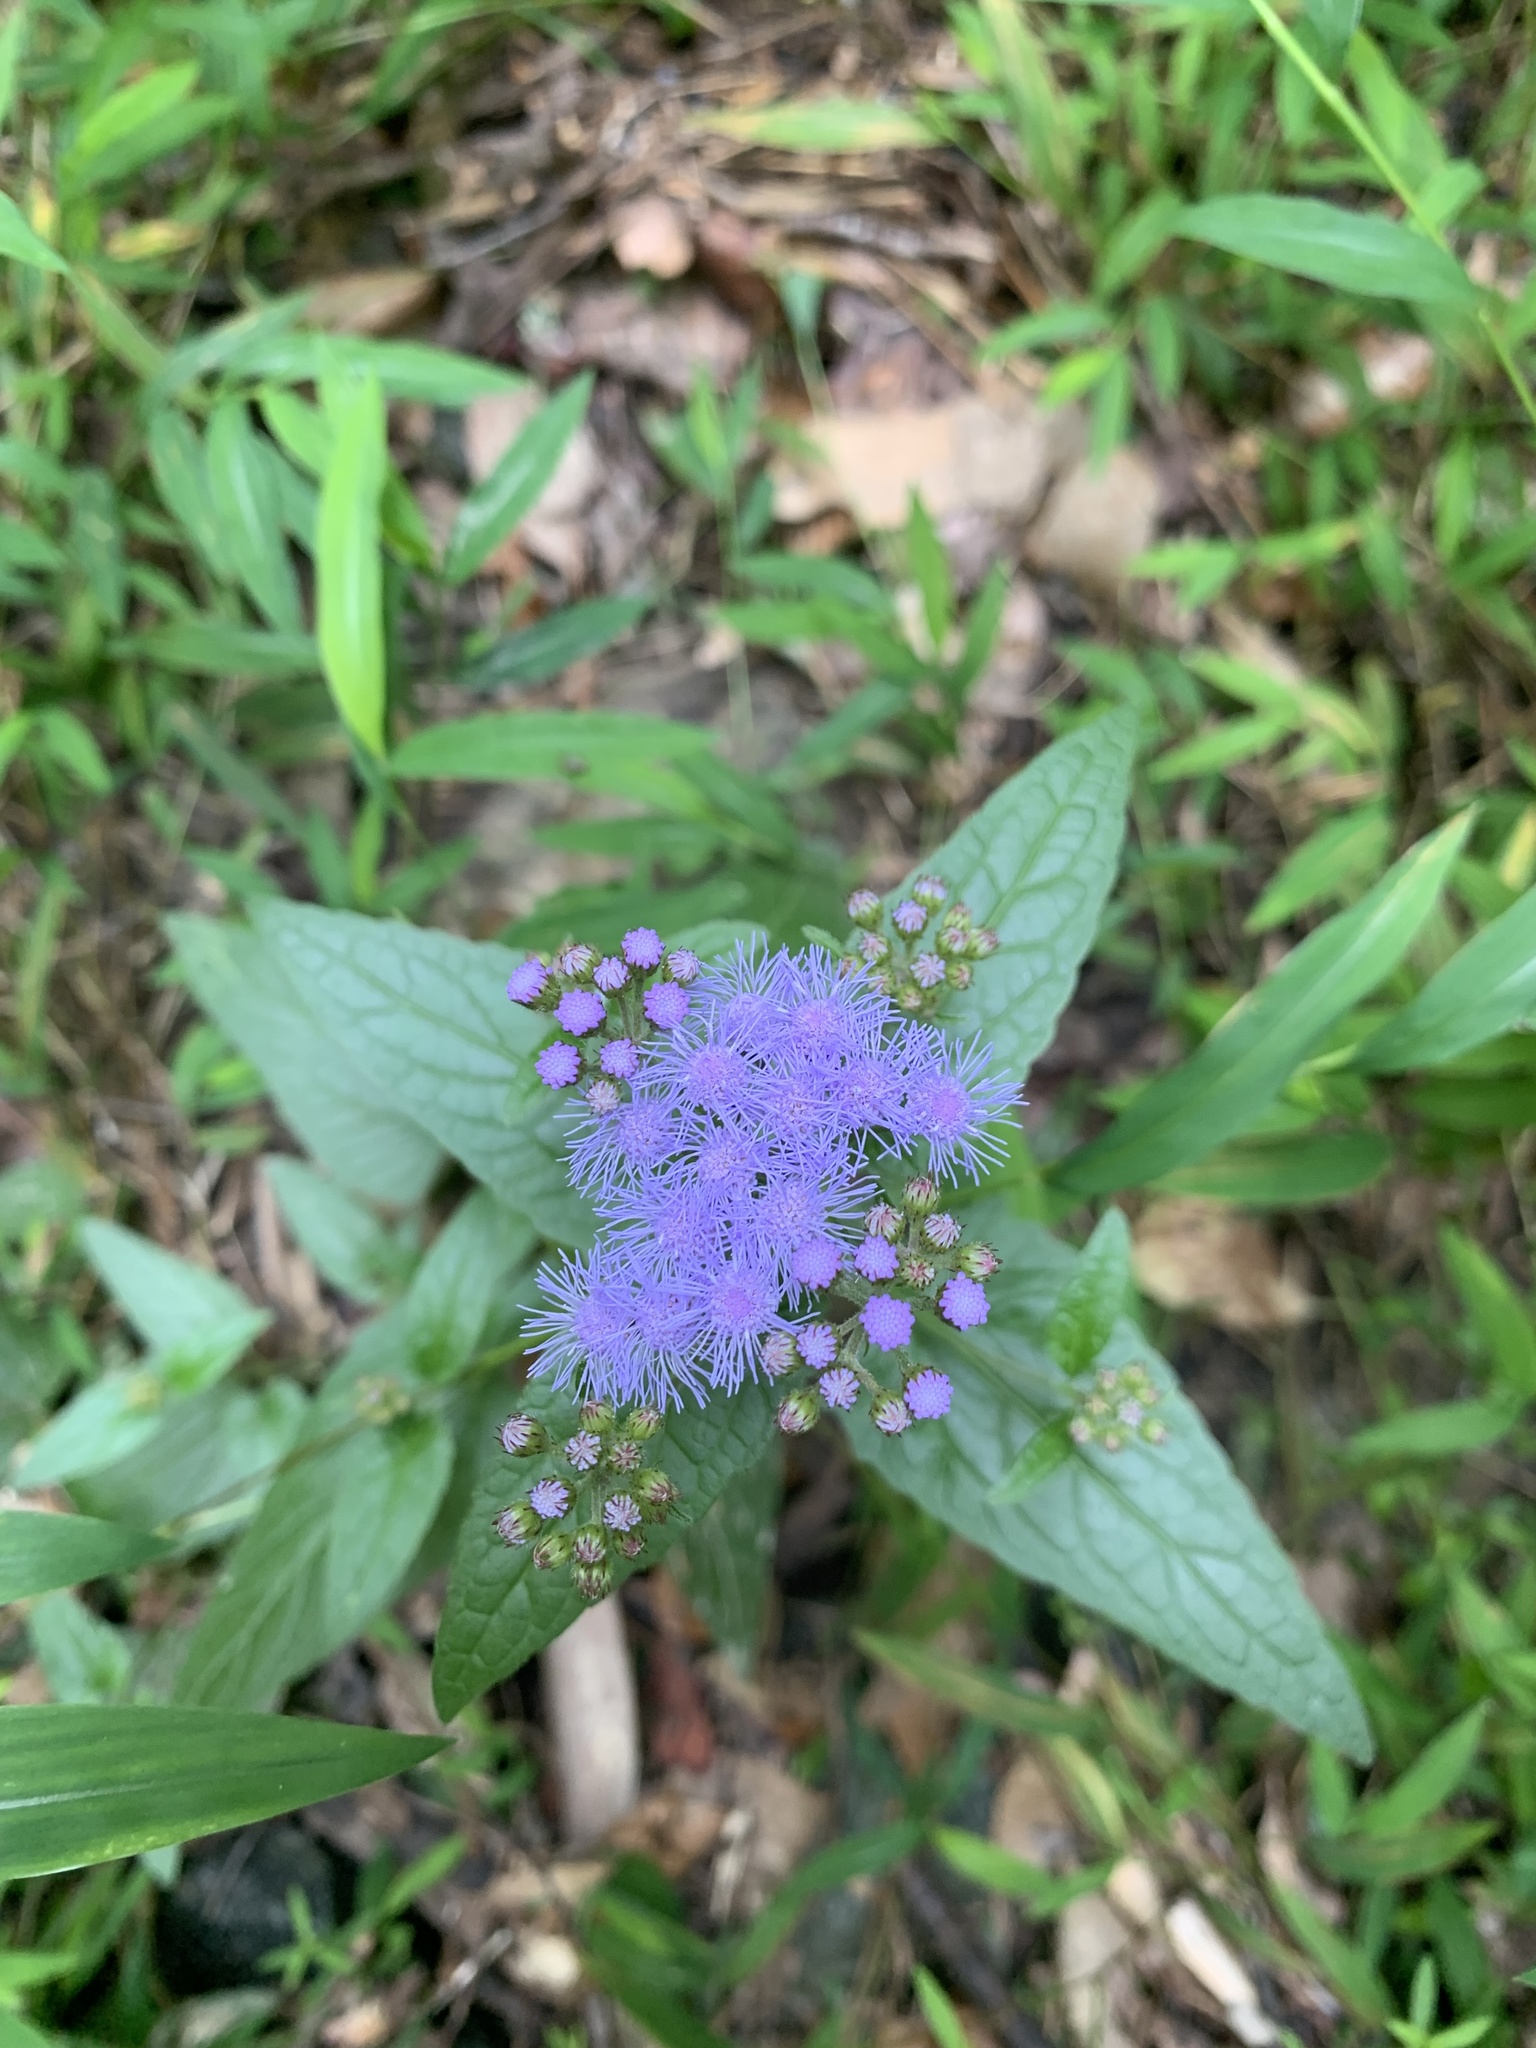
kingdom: Plantae
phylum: Tracheophyta
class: Magnoliopsida
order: Asterales
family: Asteraceae
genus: Conoclinium
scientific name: Conoclinium coelestinum
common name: Blue mistflower
